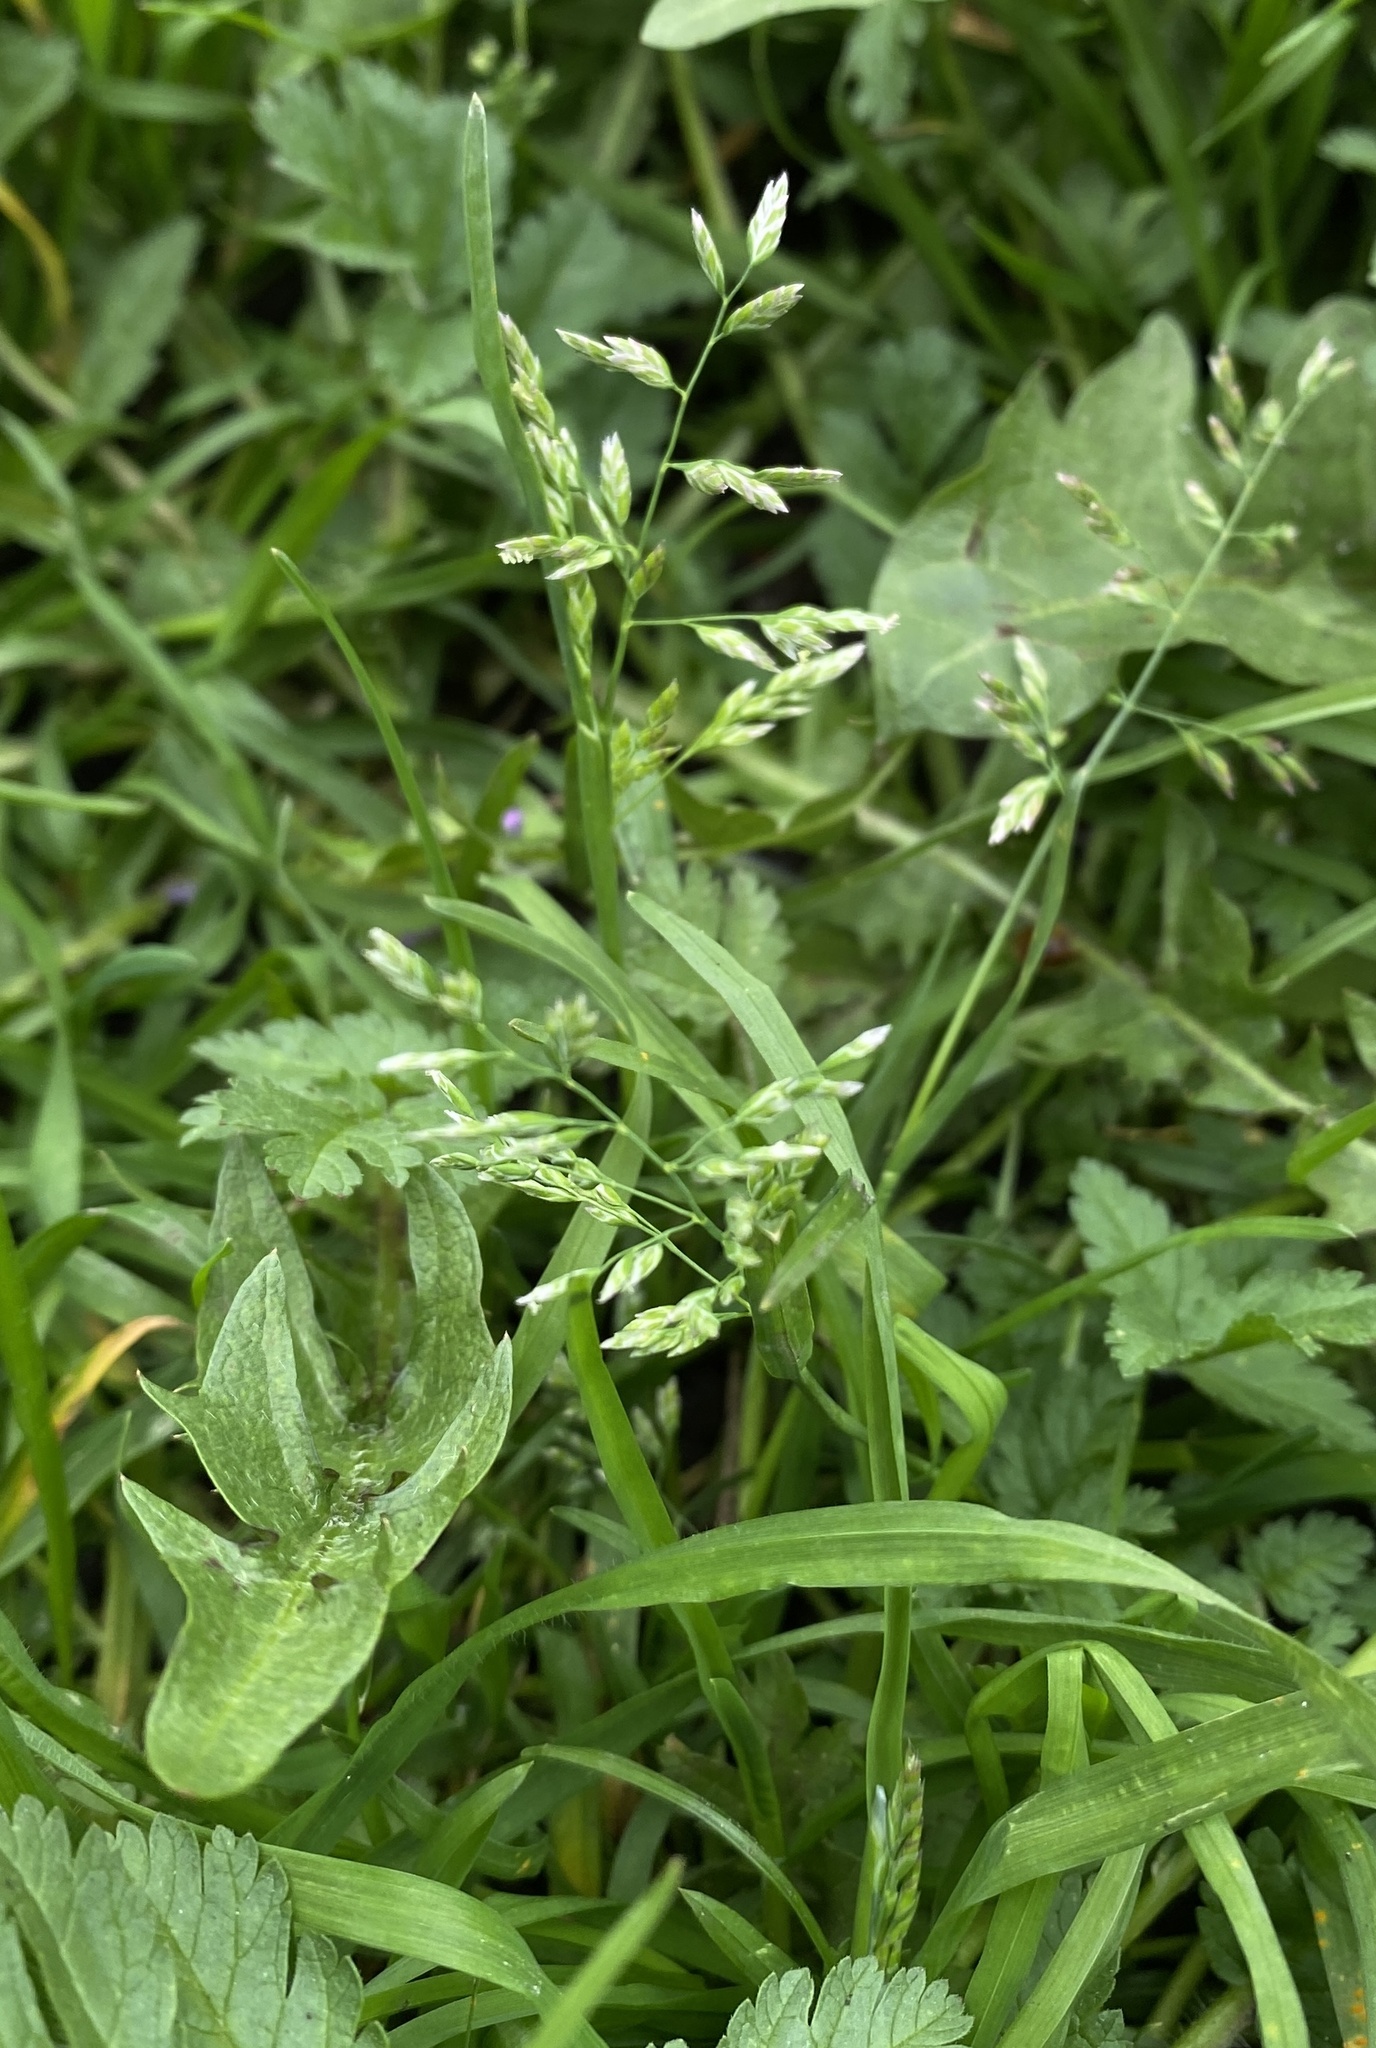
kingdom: Plantae
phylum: Tracheophyta
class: Liliopsida
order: Poales
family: Poaceae
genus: Poa
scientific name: Poa annua
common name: Annual bluegrass
